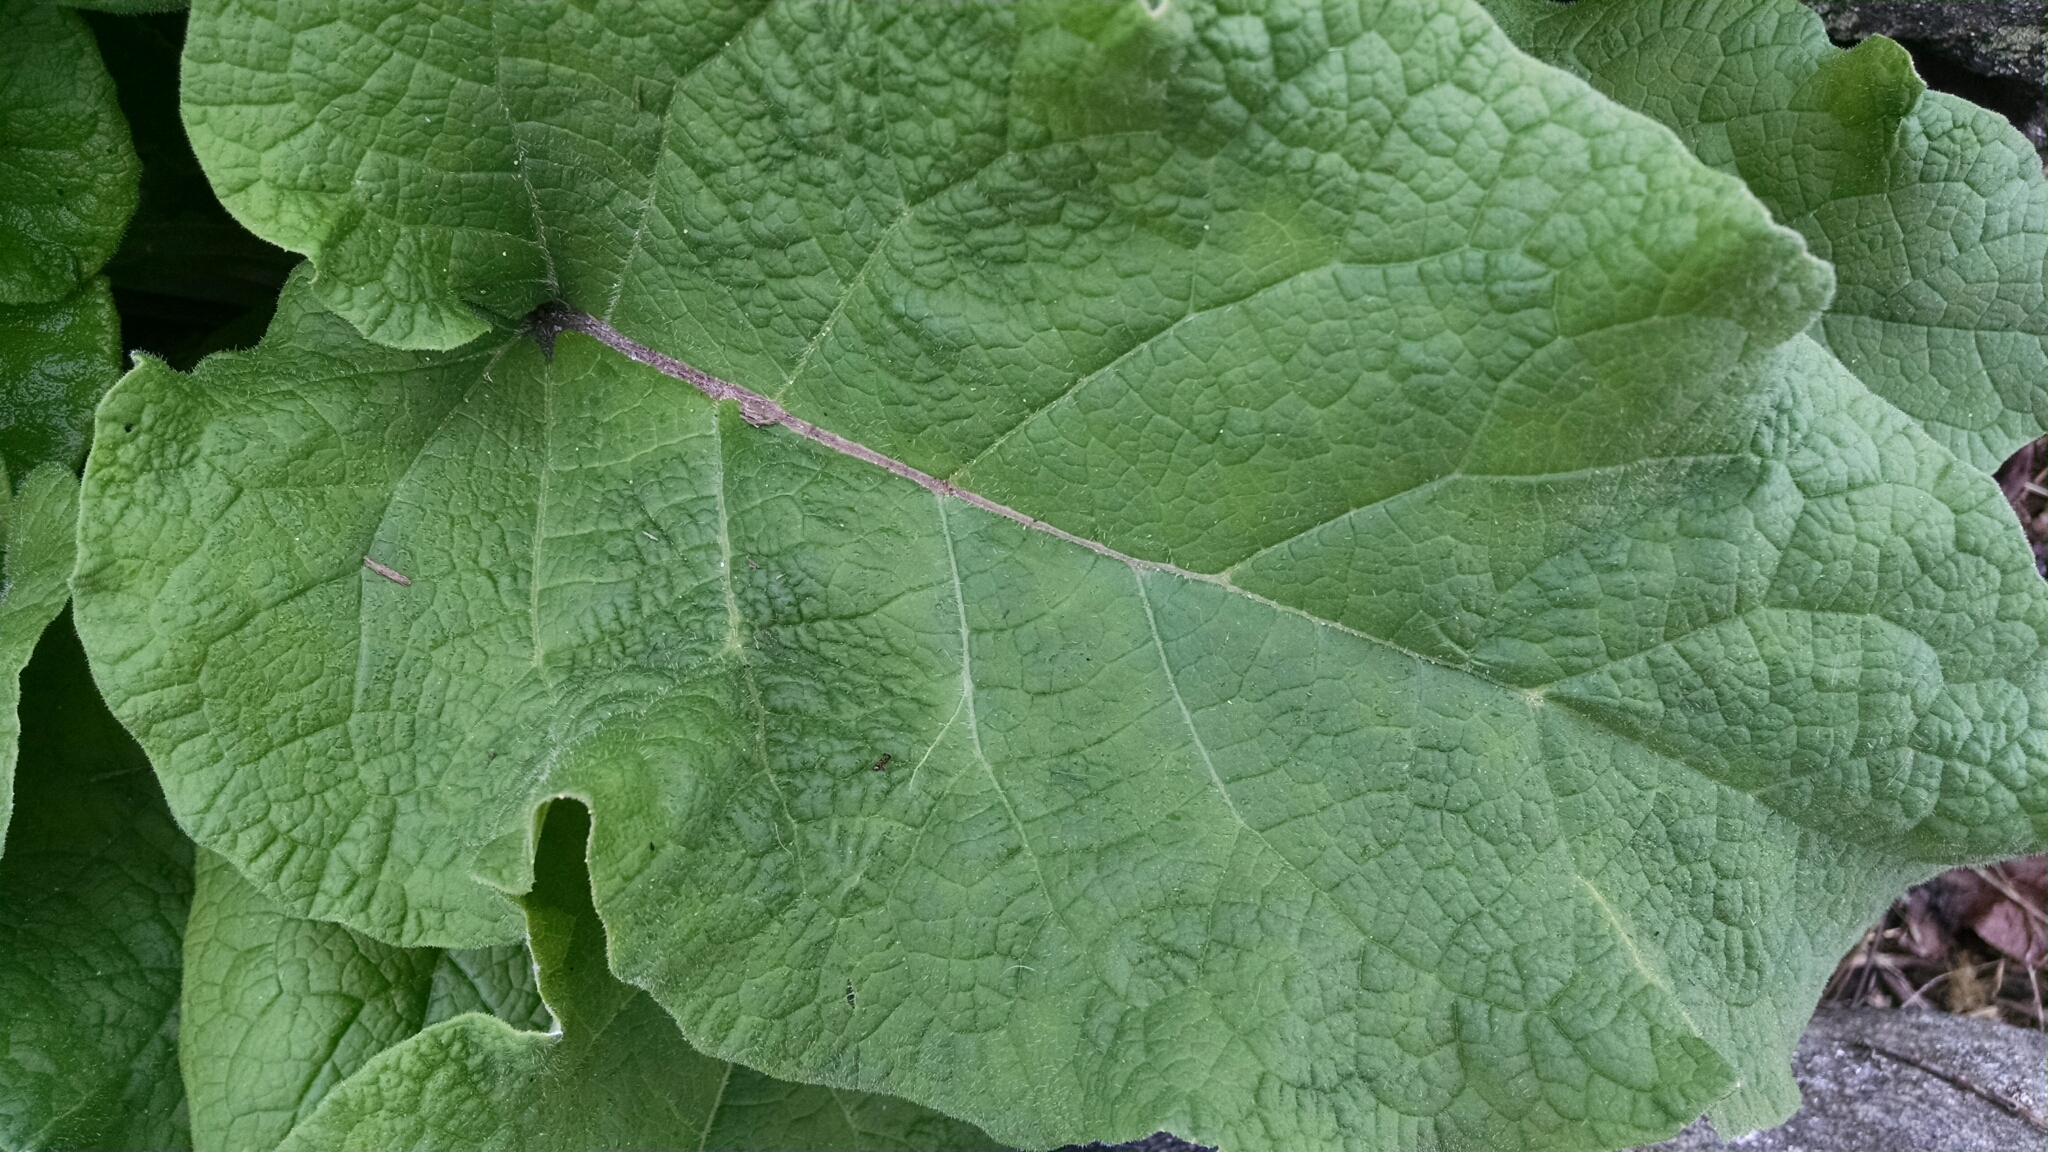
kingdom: Plantae
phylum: Tracheophyta
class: Magnoliopsida
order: Asterales
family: Asteraceae
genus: Arctium
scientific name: Arctium
